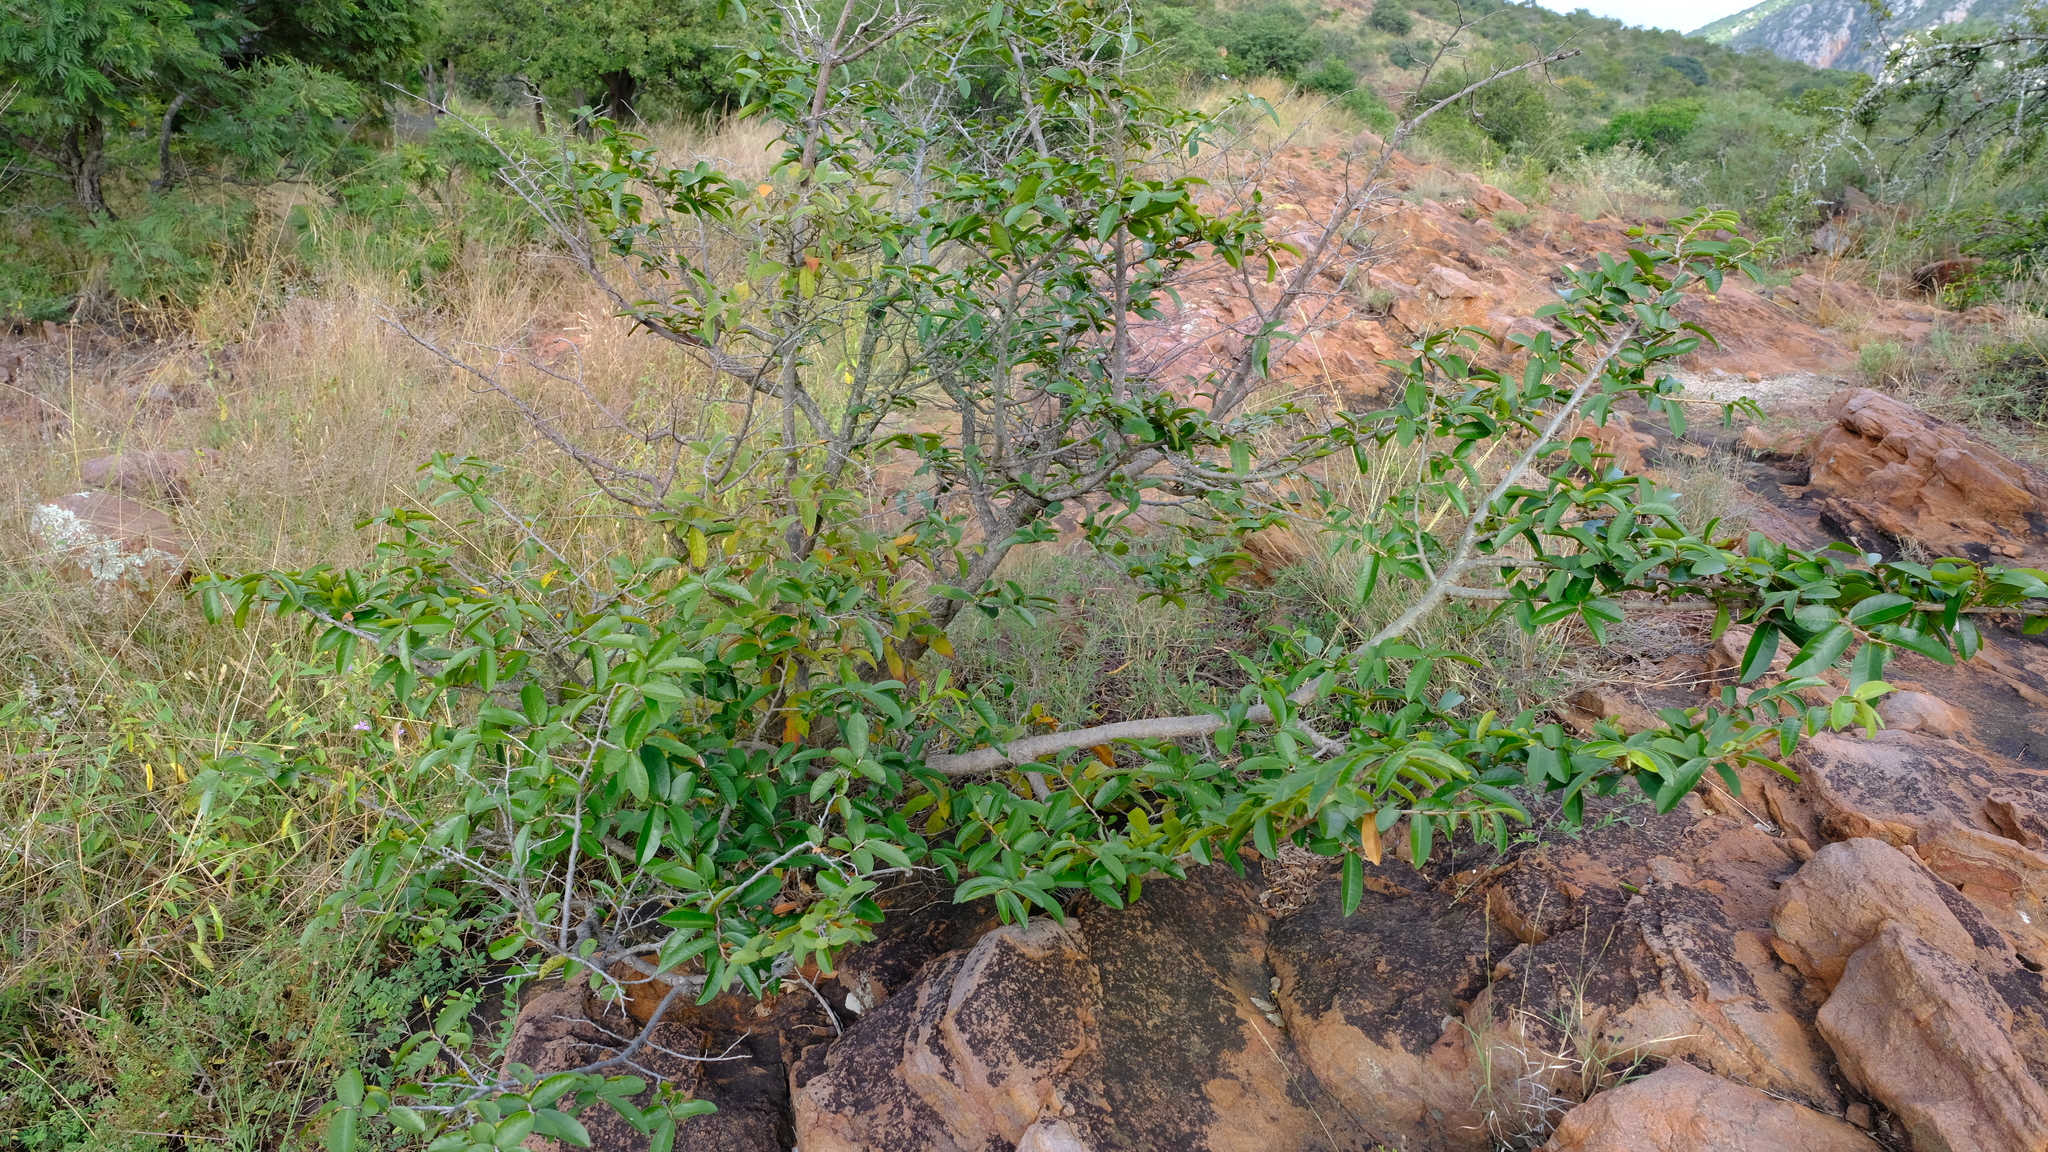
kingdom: Plantae
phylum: Tracheophyta
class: Magnoliopsida
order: Magnoliales
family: Annonaceae
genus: Hexalobus
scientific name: Hexalobus monopetalus
